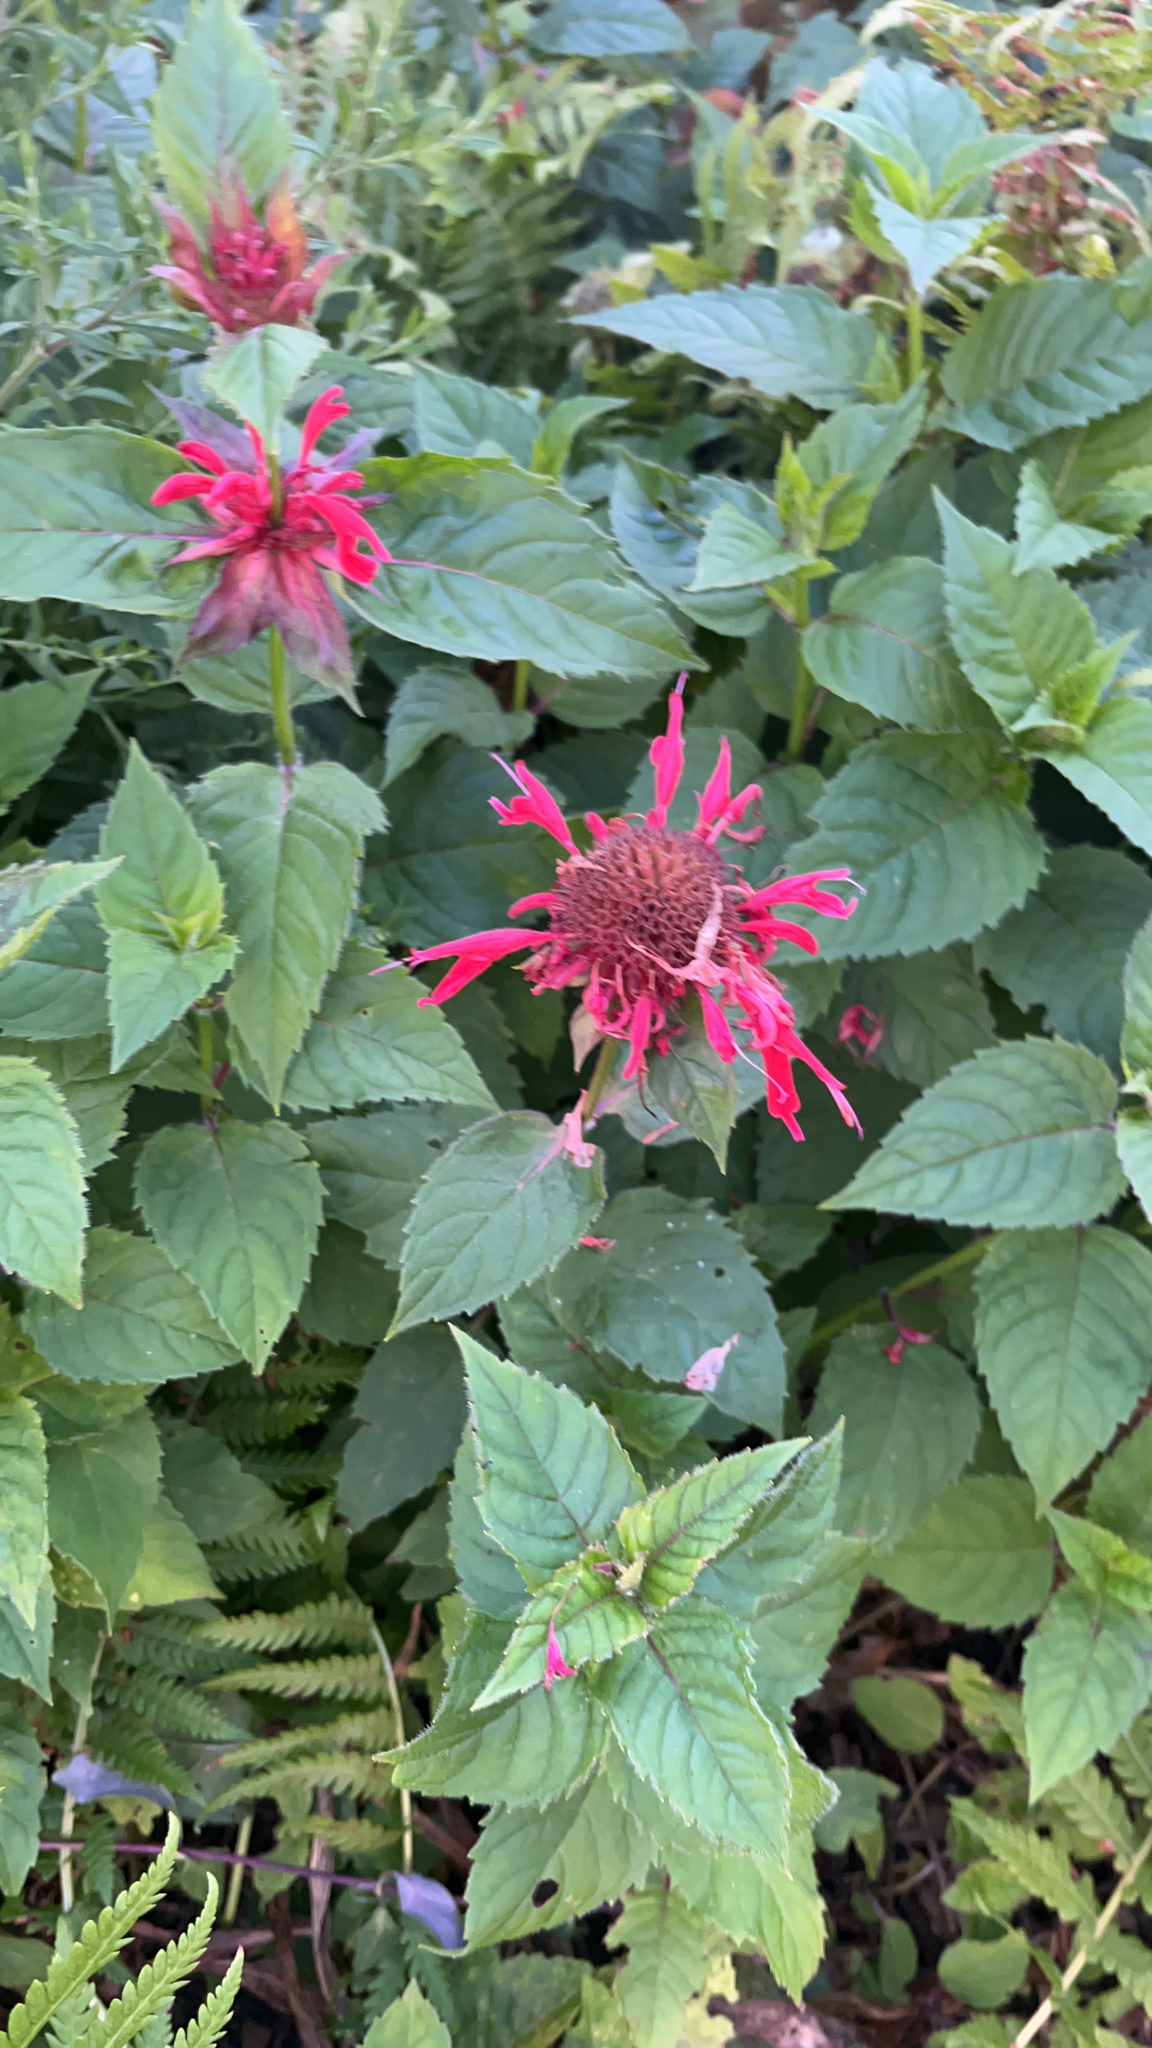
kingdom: Plantae
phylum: Tracheophyta
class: Magnoliopsida
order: Lamiales
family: Lamiaceae
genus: Monarda
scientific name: Monarda didyma
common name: Beebalm
